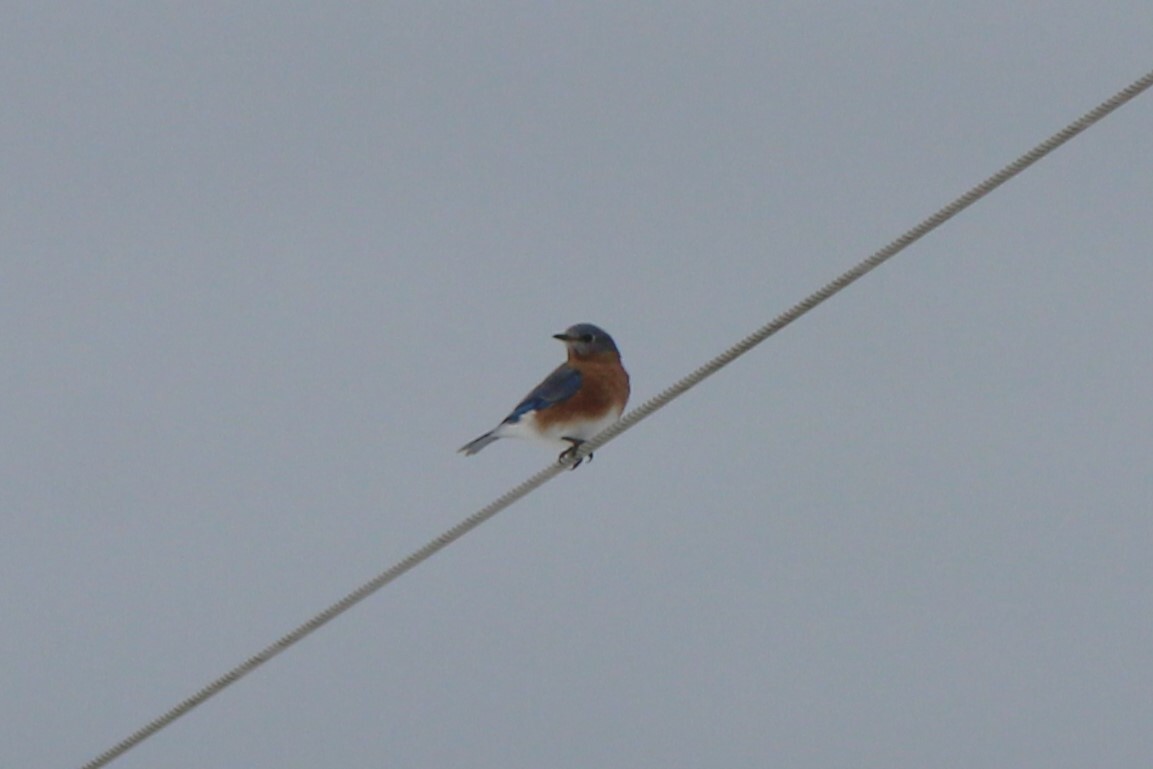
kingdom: Animalia
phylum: Chordata
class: Aves
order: Passeriformes
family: Turdidae
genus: Sialia
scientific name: Sialia sialis
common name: Eastern bluebird
